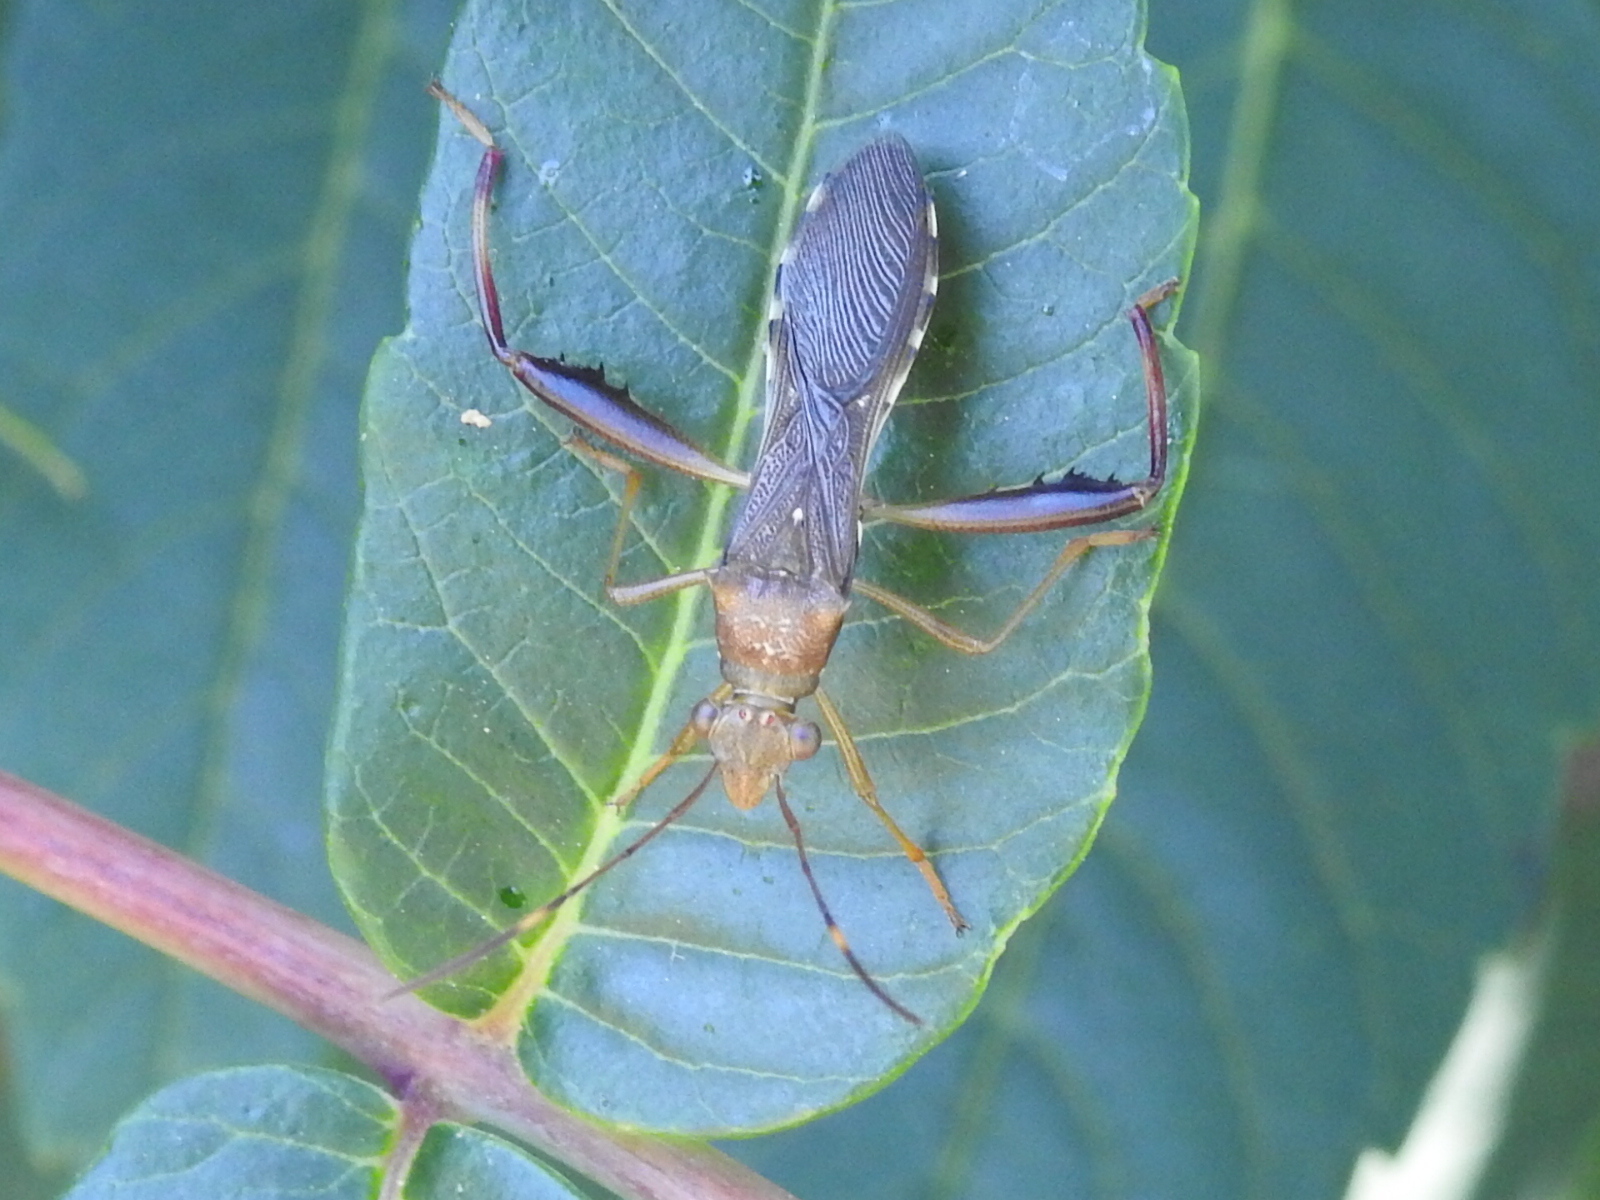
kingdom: Animalia
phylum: Arthropoda
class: Insecta
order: Hemiptera
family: Alydidae
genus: Hyalymenus
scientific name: Hyalymenus tarsatus
